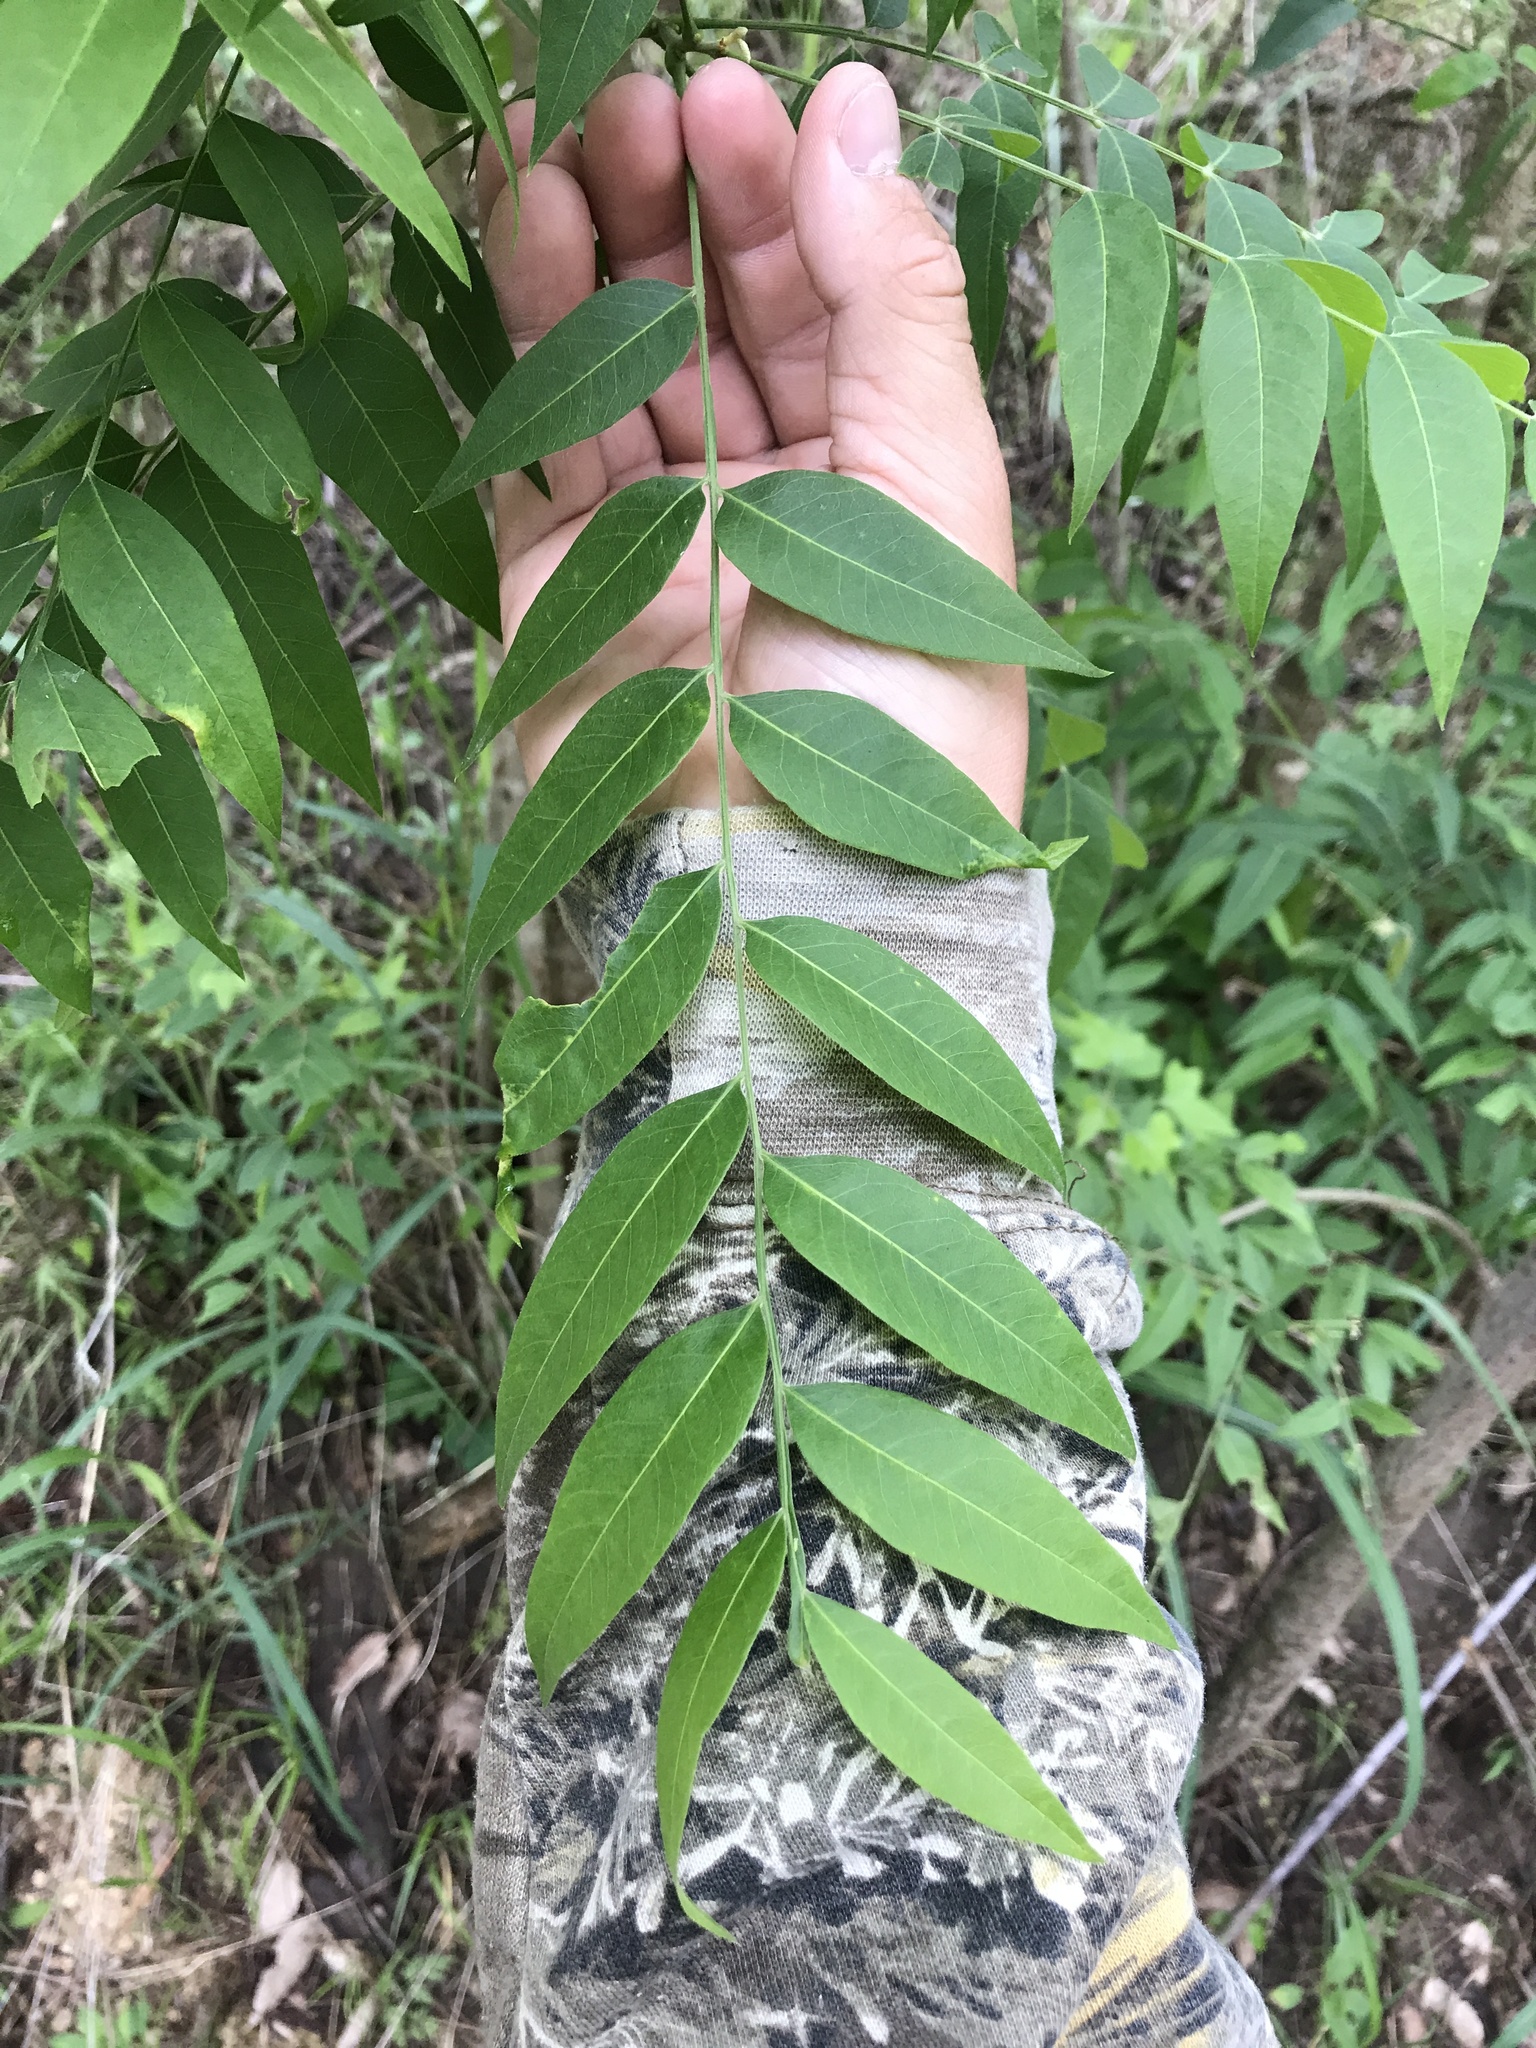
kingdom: Plantae
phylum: Tracheophyta
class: Magnoliopsida
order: Sapindales
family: Sapindaceae
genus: Sapindus
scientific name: Sapindus drummondii
